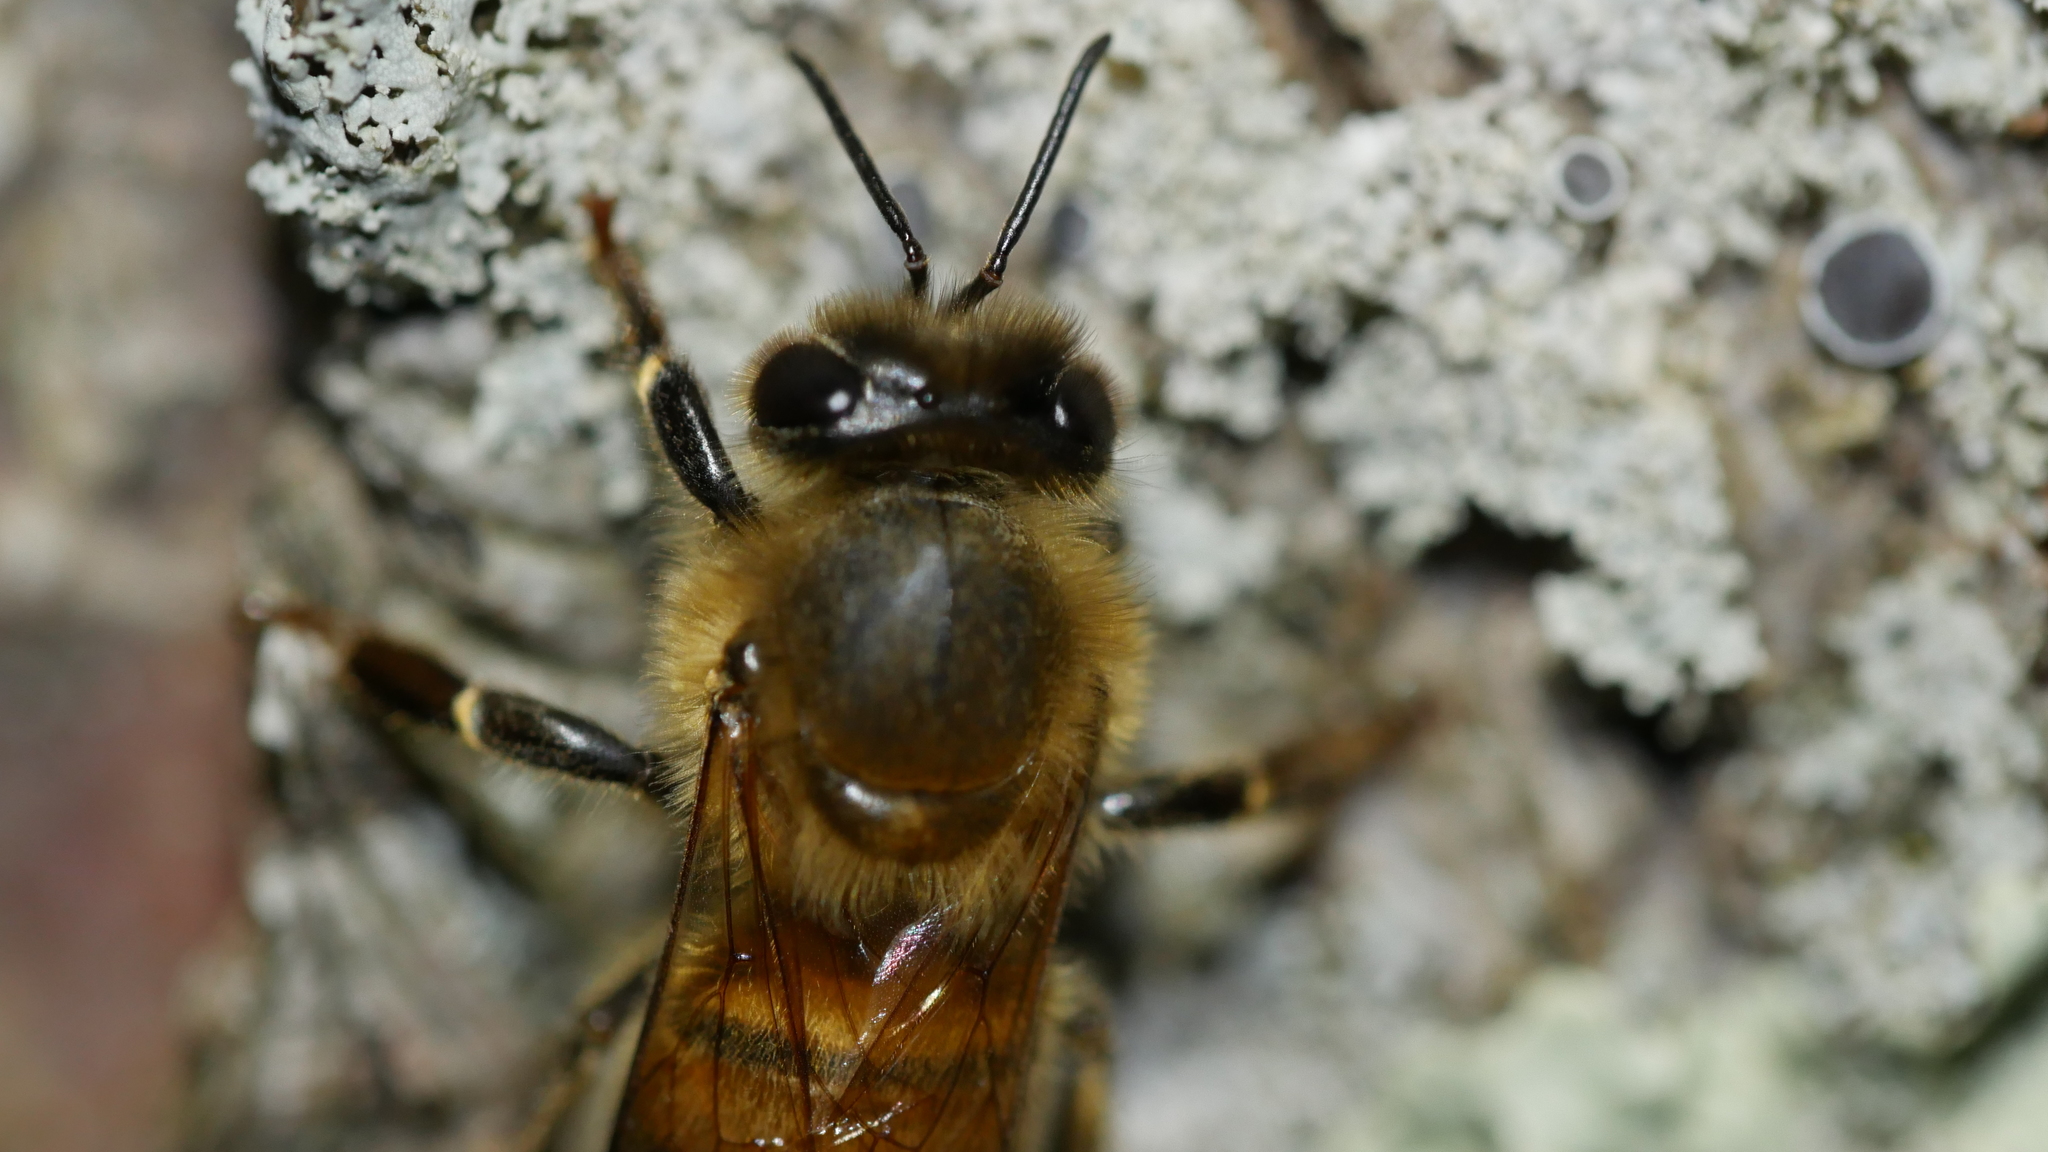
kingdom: Animalia
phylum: Arthropoda
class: Insecta
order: Hymenoptera
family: Apidae
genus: Apis
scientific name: Apis mellifera
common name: Honey bee
